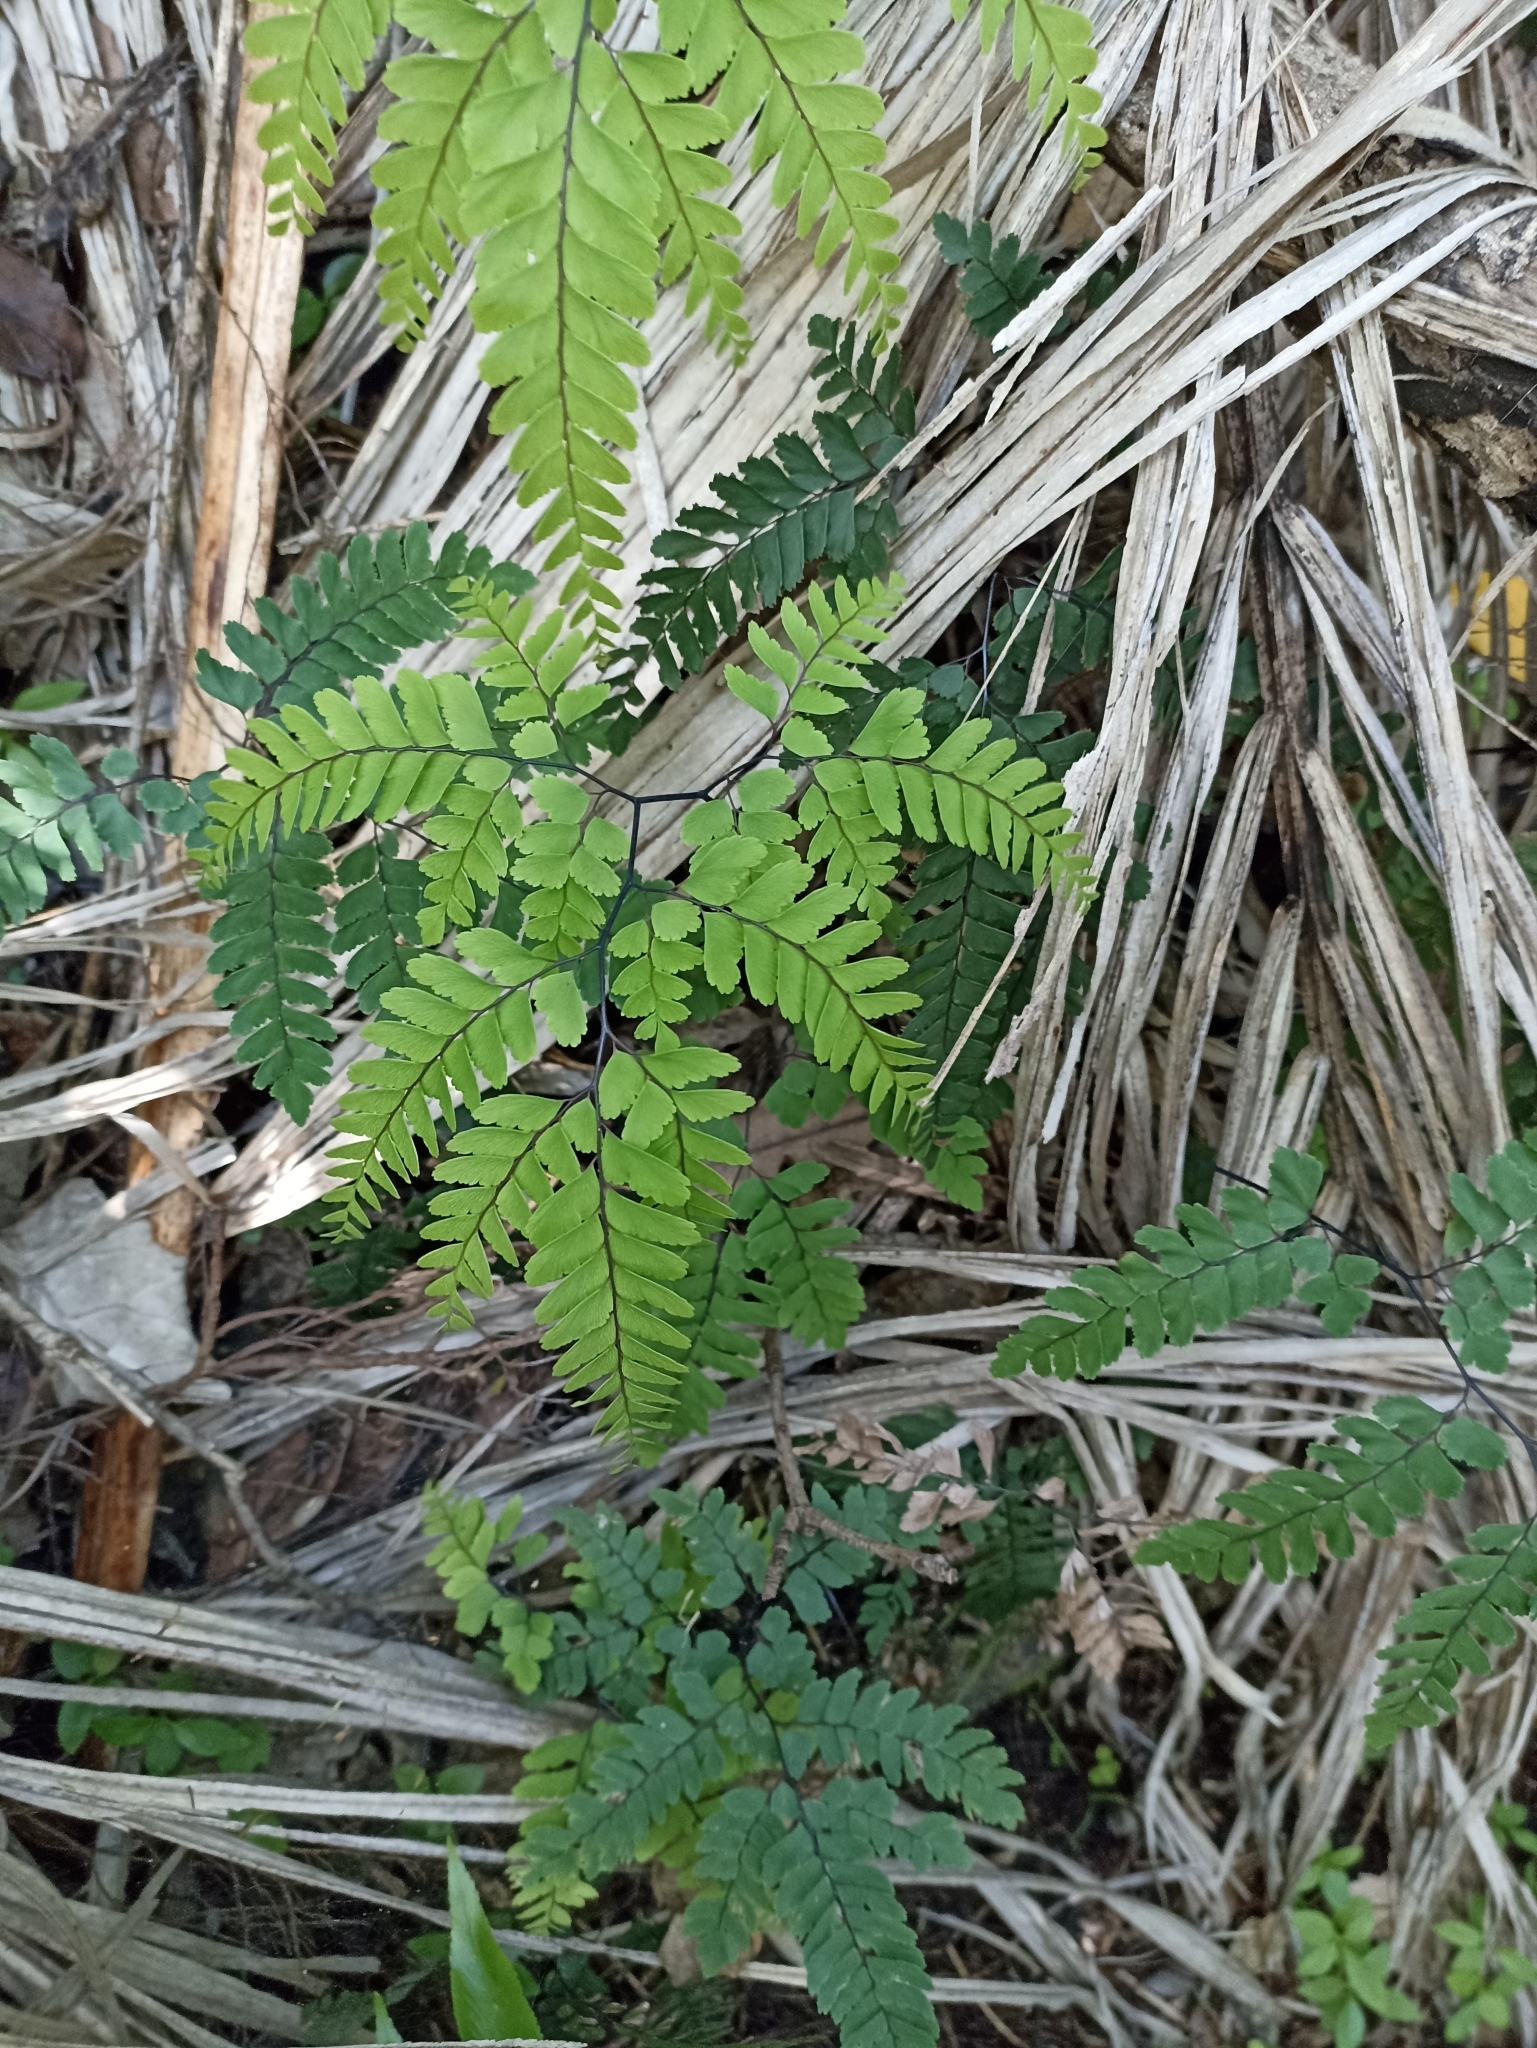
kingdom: Plantae
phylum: Tracheophyta
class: Polypodiopsida
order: Polypodiales
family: Pteridaceae
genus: Adiantum
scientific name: Adiantum cunninghamii
